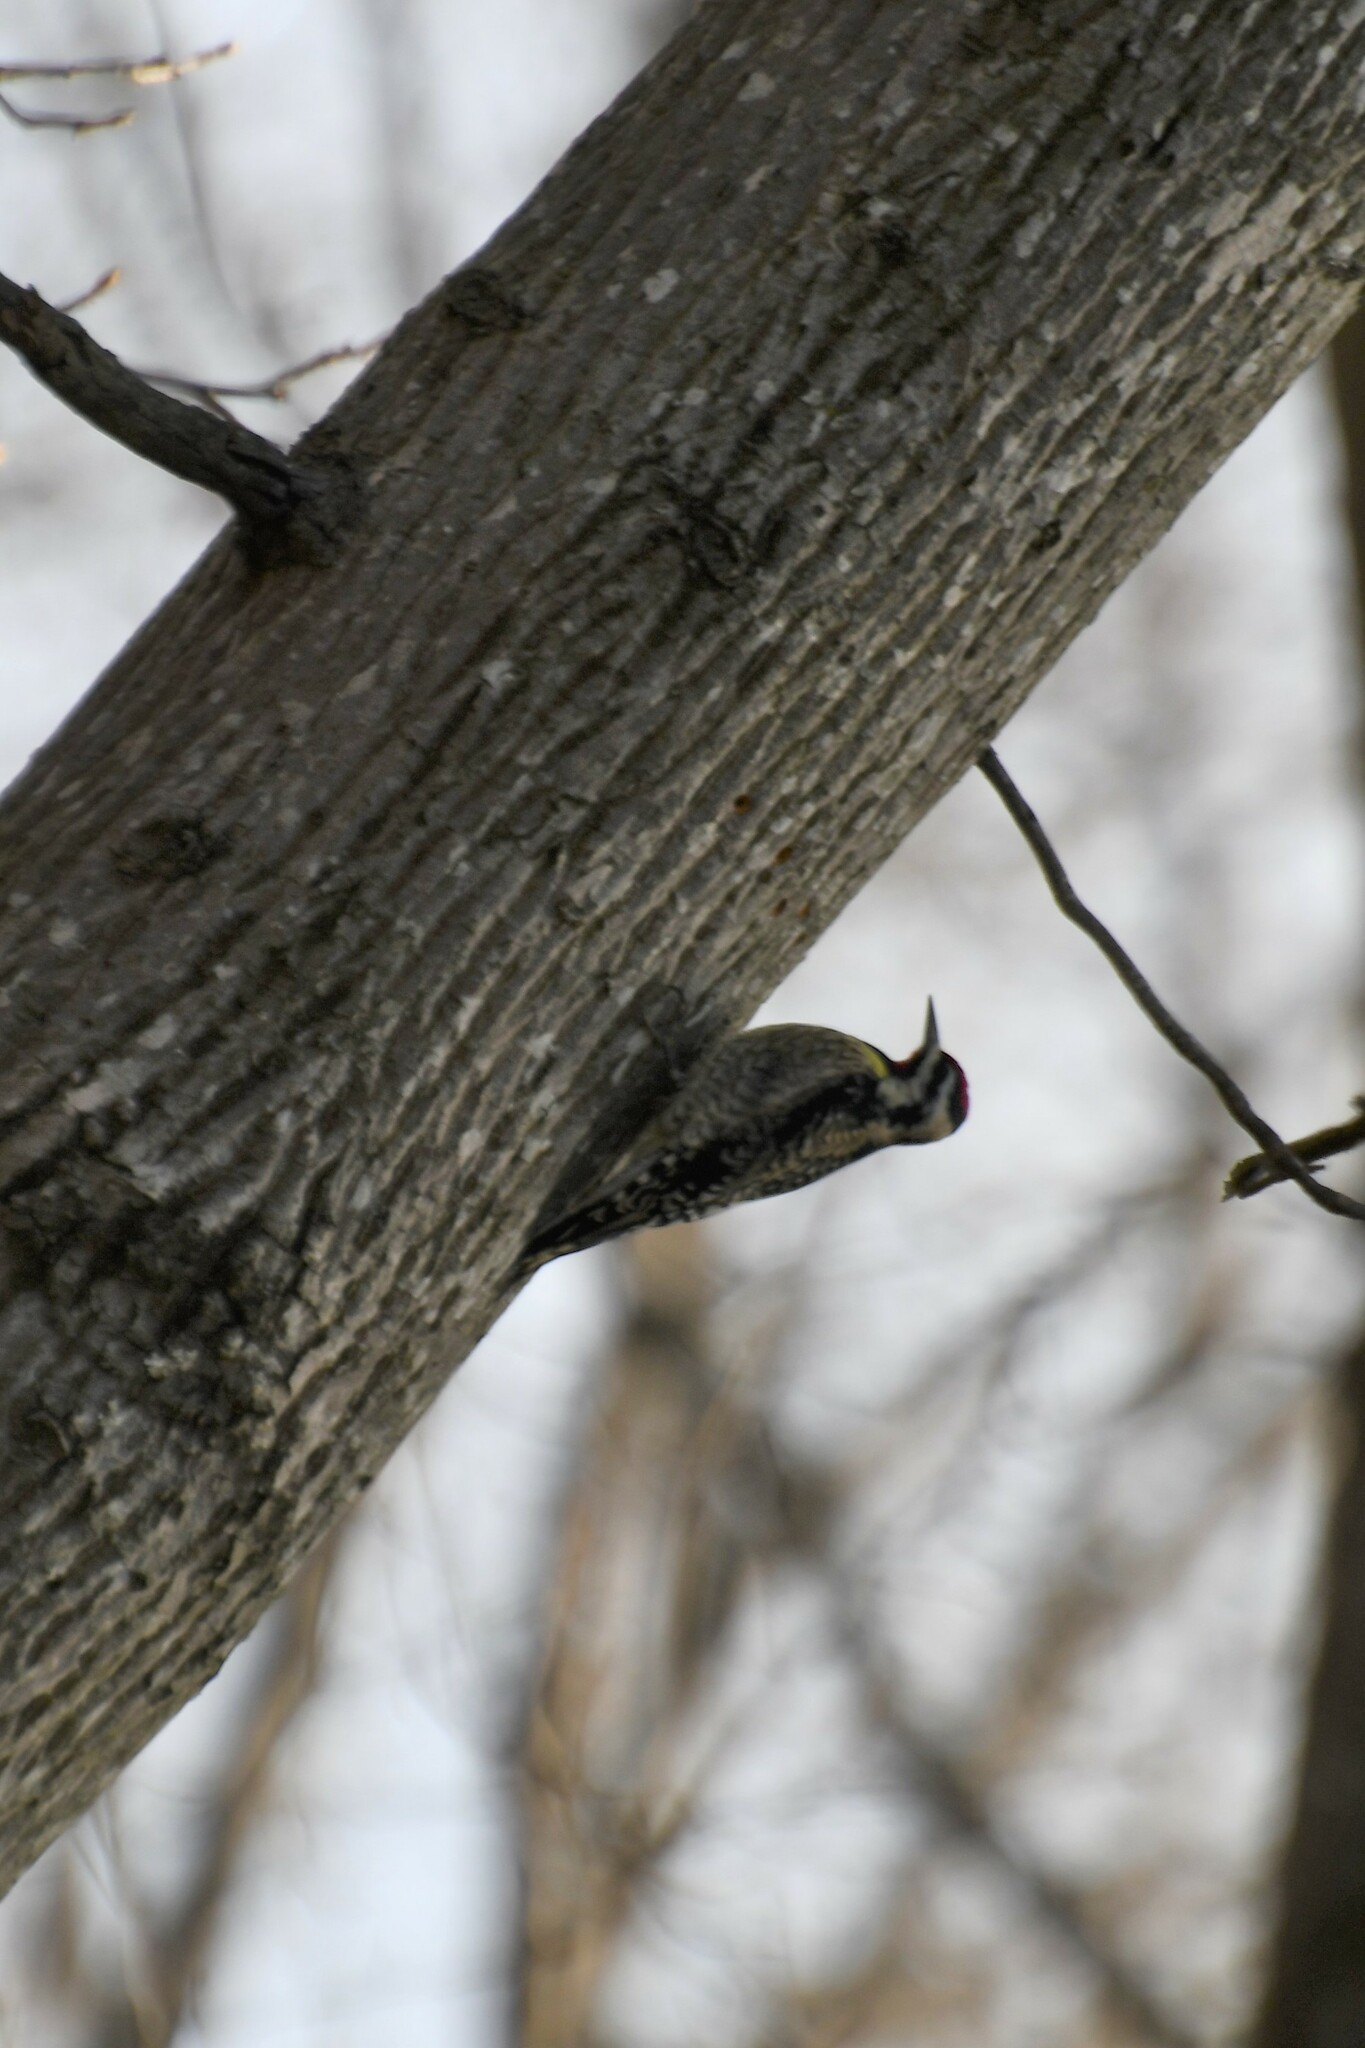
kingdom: Animalia
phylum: Chordata
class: Aves
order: Piciformes
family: Picidae
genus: Sphyrapicus
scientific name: Sphyrapicus varius
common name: Yellow-bellied sapsucker
